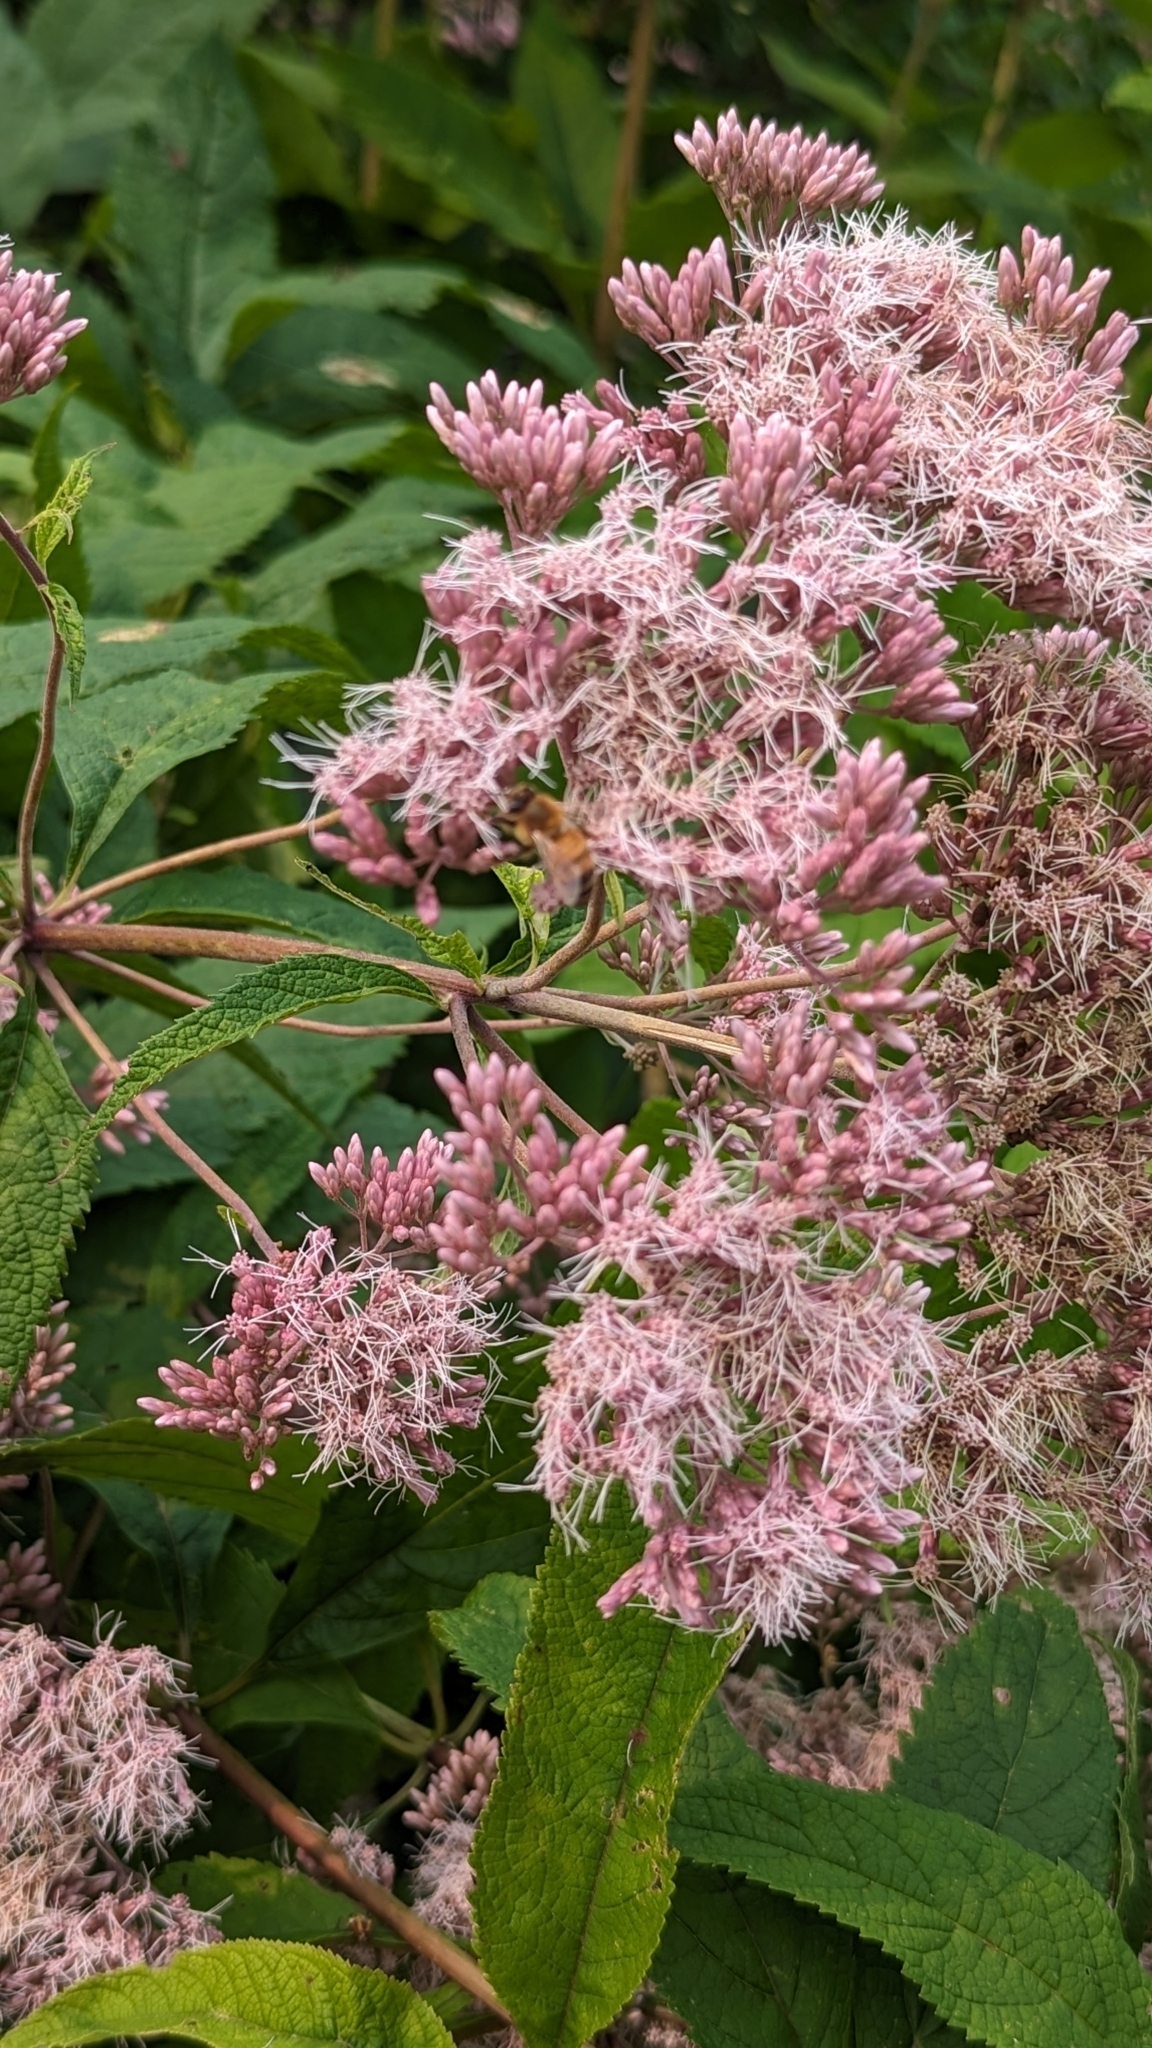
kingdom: Animalia
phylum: Arthropoda
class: Insecta
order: Hymenoptera
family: Apidae
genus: Apis
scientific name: Apis mellifera
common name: Honey bee
